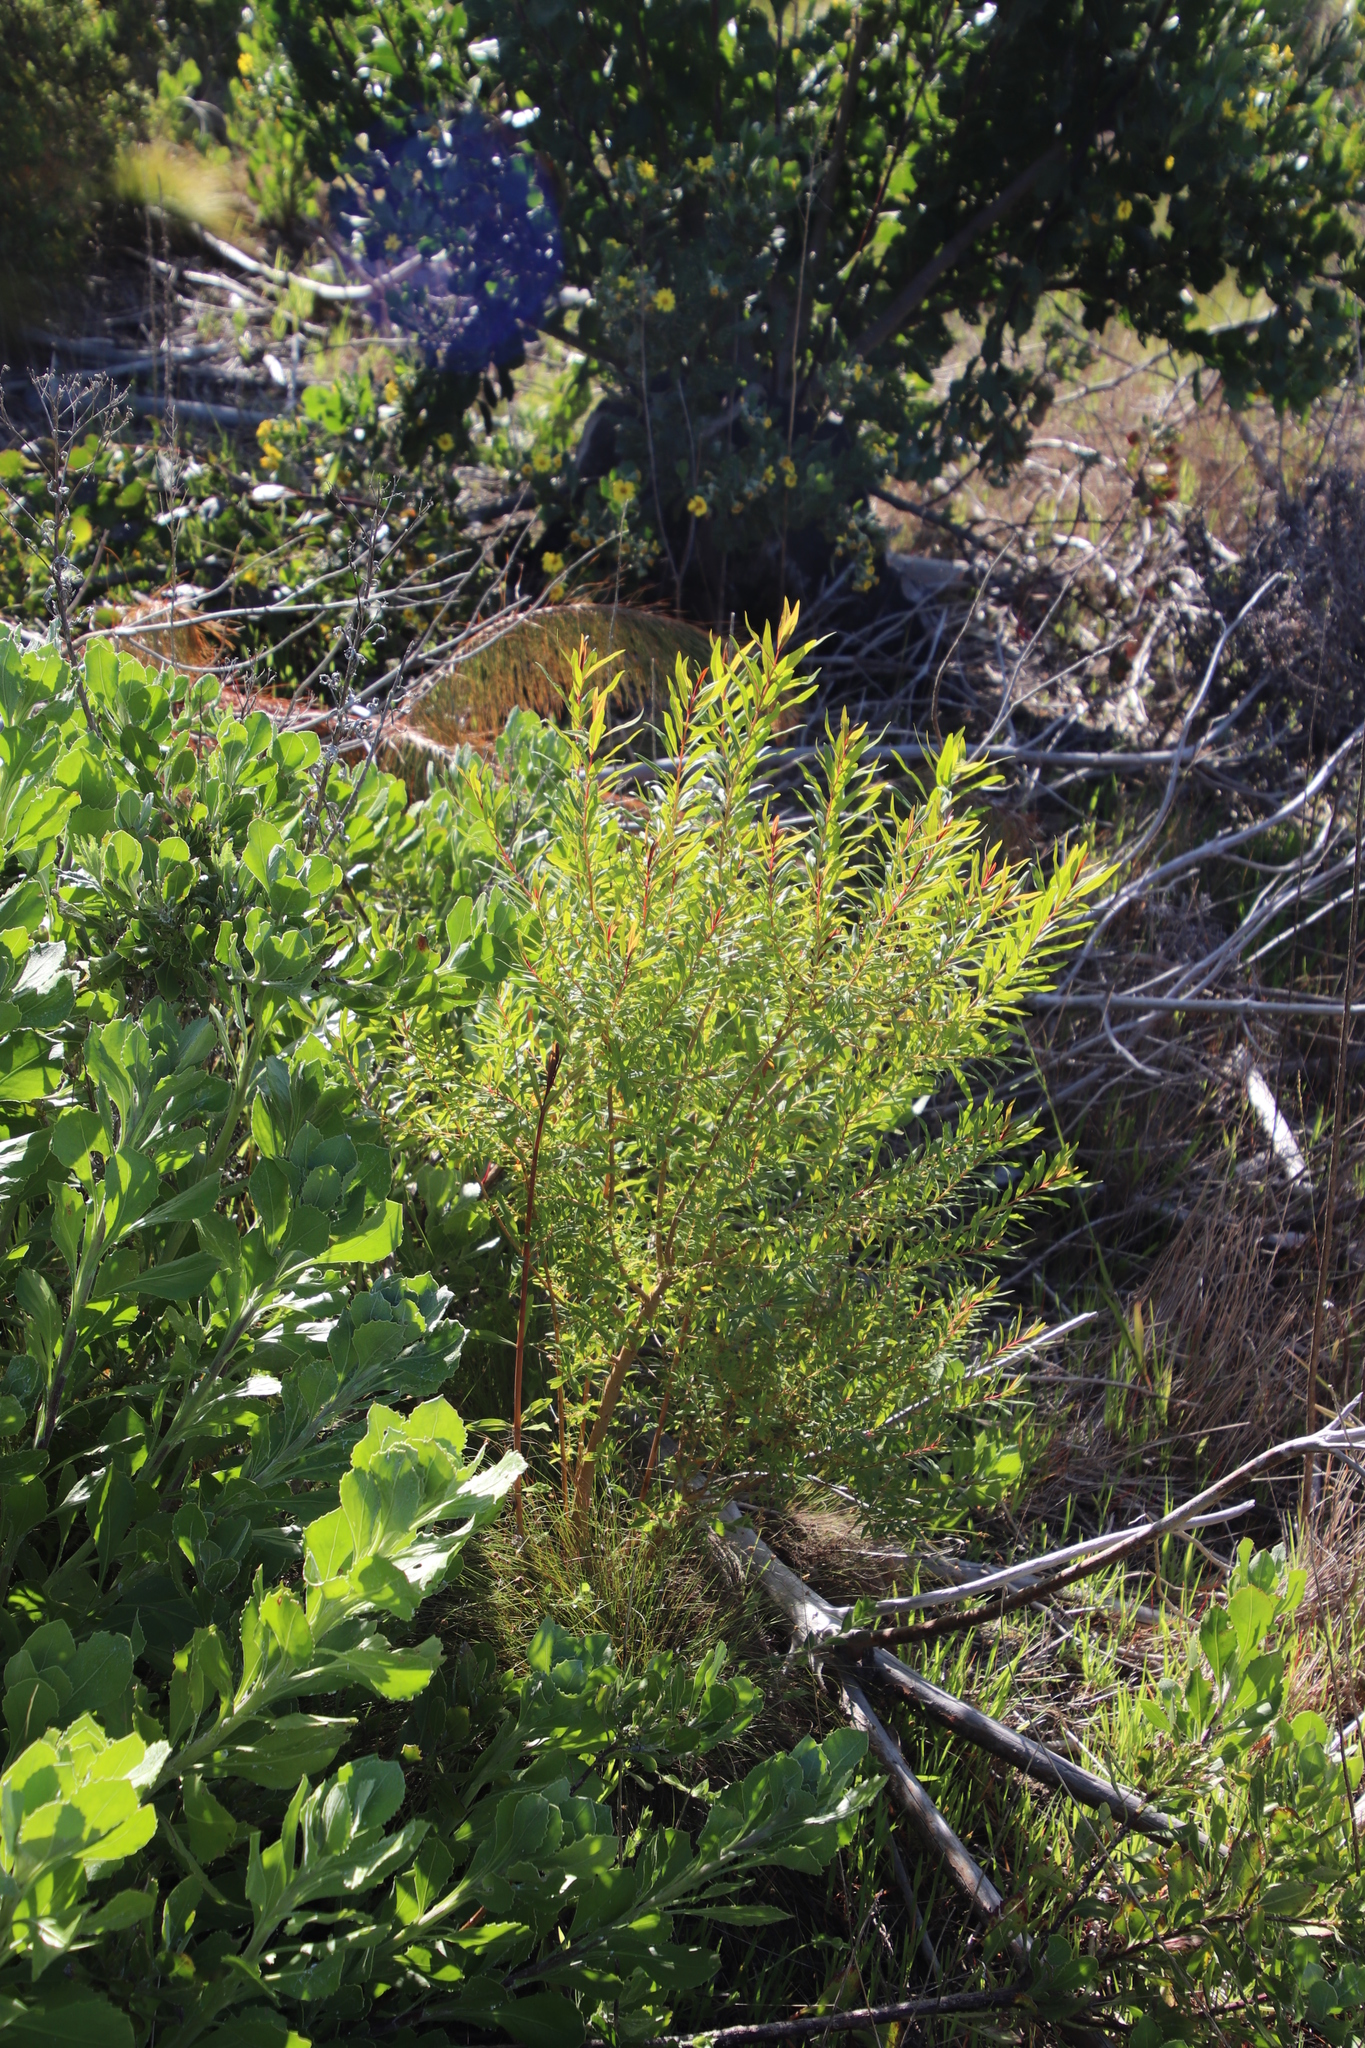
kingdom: Plantae
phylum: Tracheophyta
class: Magnoliopsida
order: Malpighiales
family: Hypericaceae
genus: Hypericum
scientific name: Hypericum canariense
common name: Canary island st. johnswort
